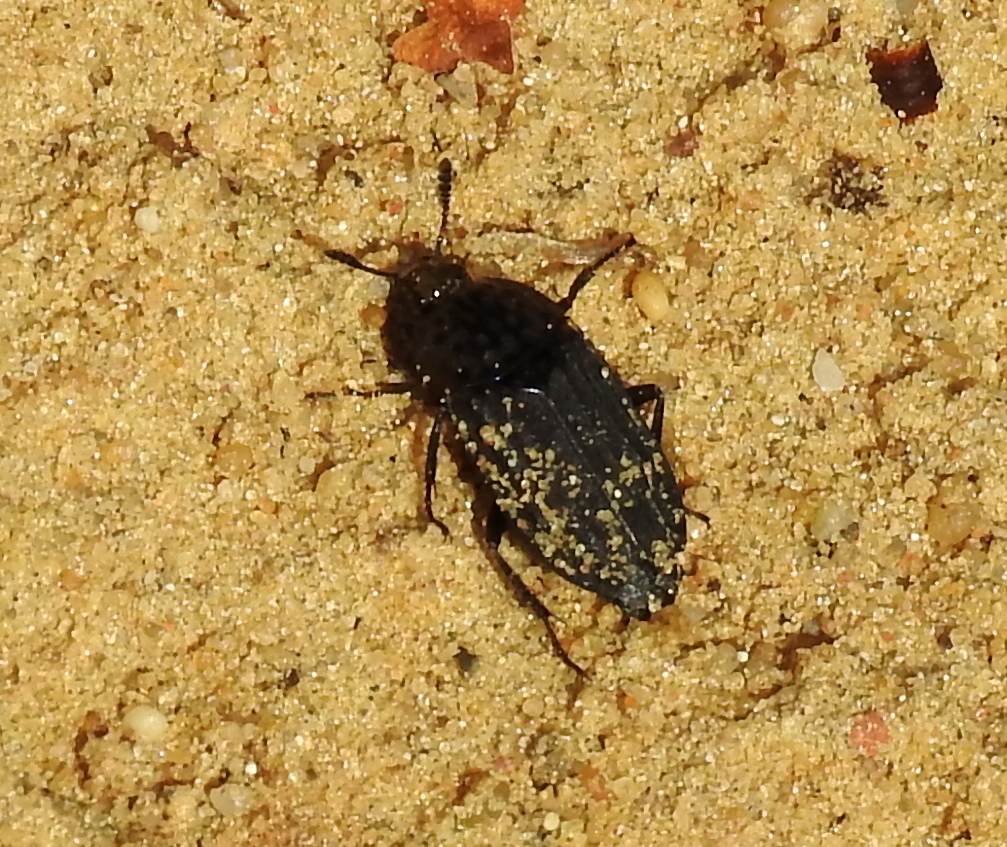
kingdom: Animalia
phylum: Arthropoda
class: Insecta
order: Coleoptera
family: Staphylinidae
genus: Thanatophilus
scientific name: Thanatophilus sinuatus
